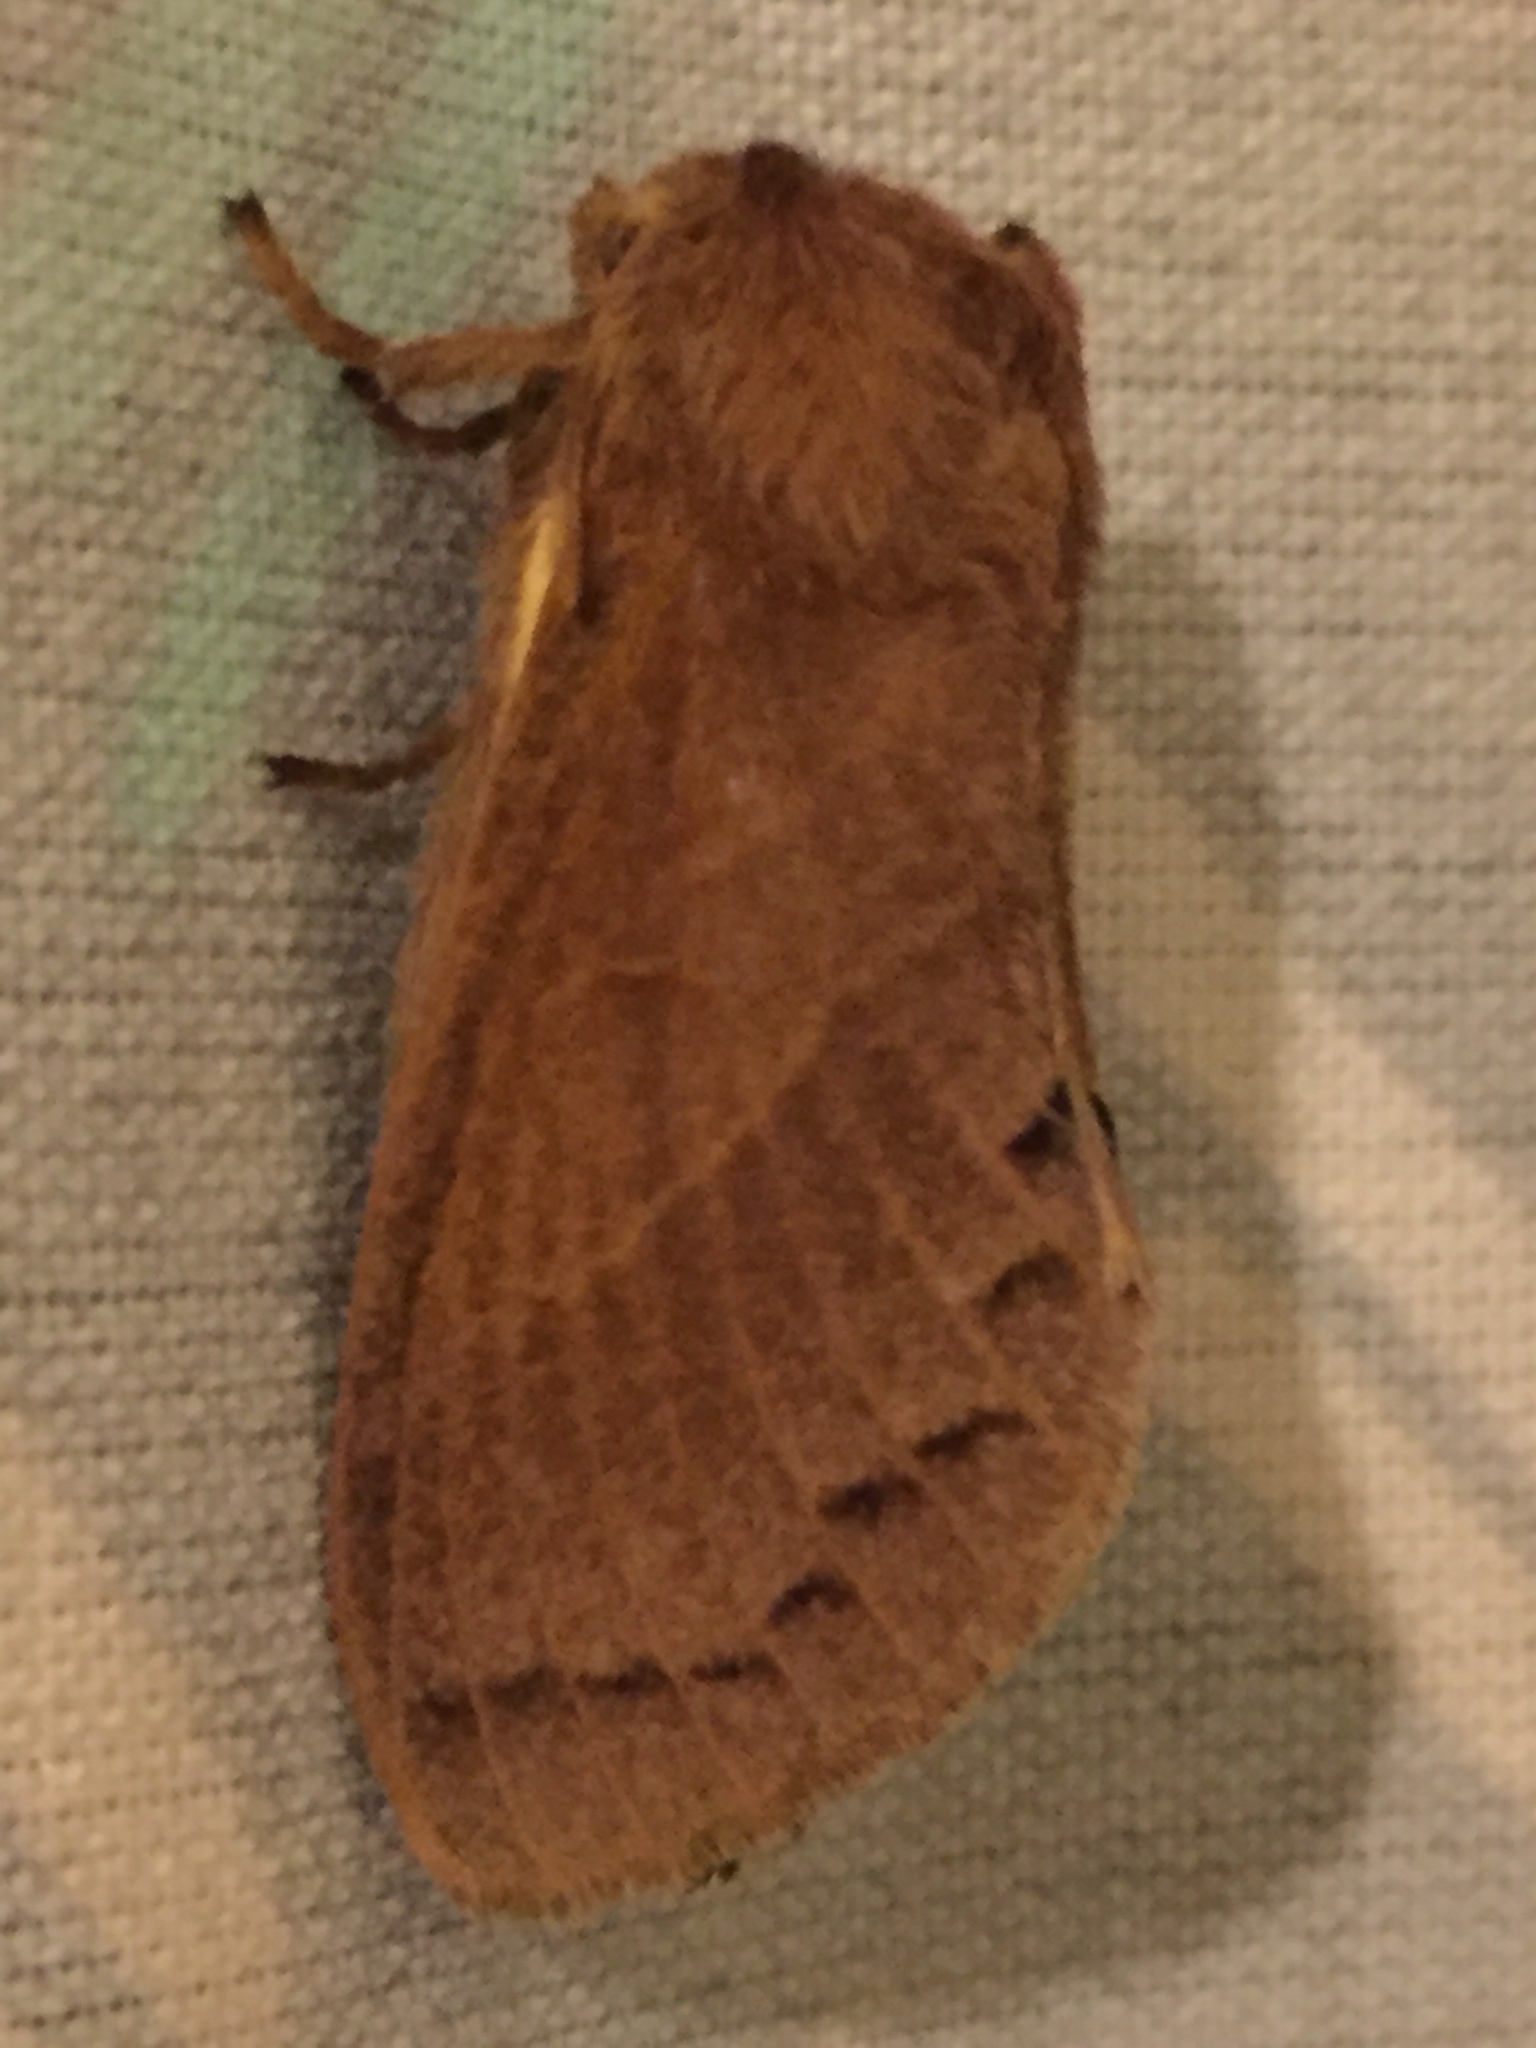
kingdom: Animalia
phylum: Arthropoda
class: Insecta
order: Lepidoptera
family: Lasiocampidae
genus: Bombycopsis
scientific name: Bombycopsis capicola
